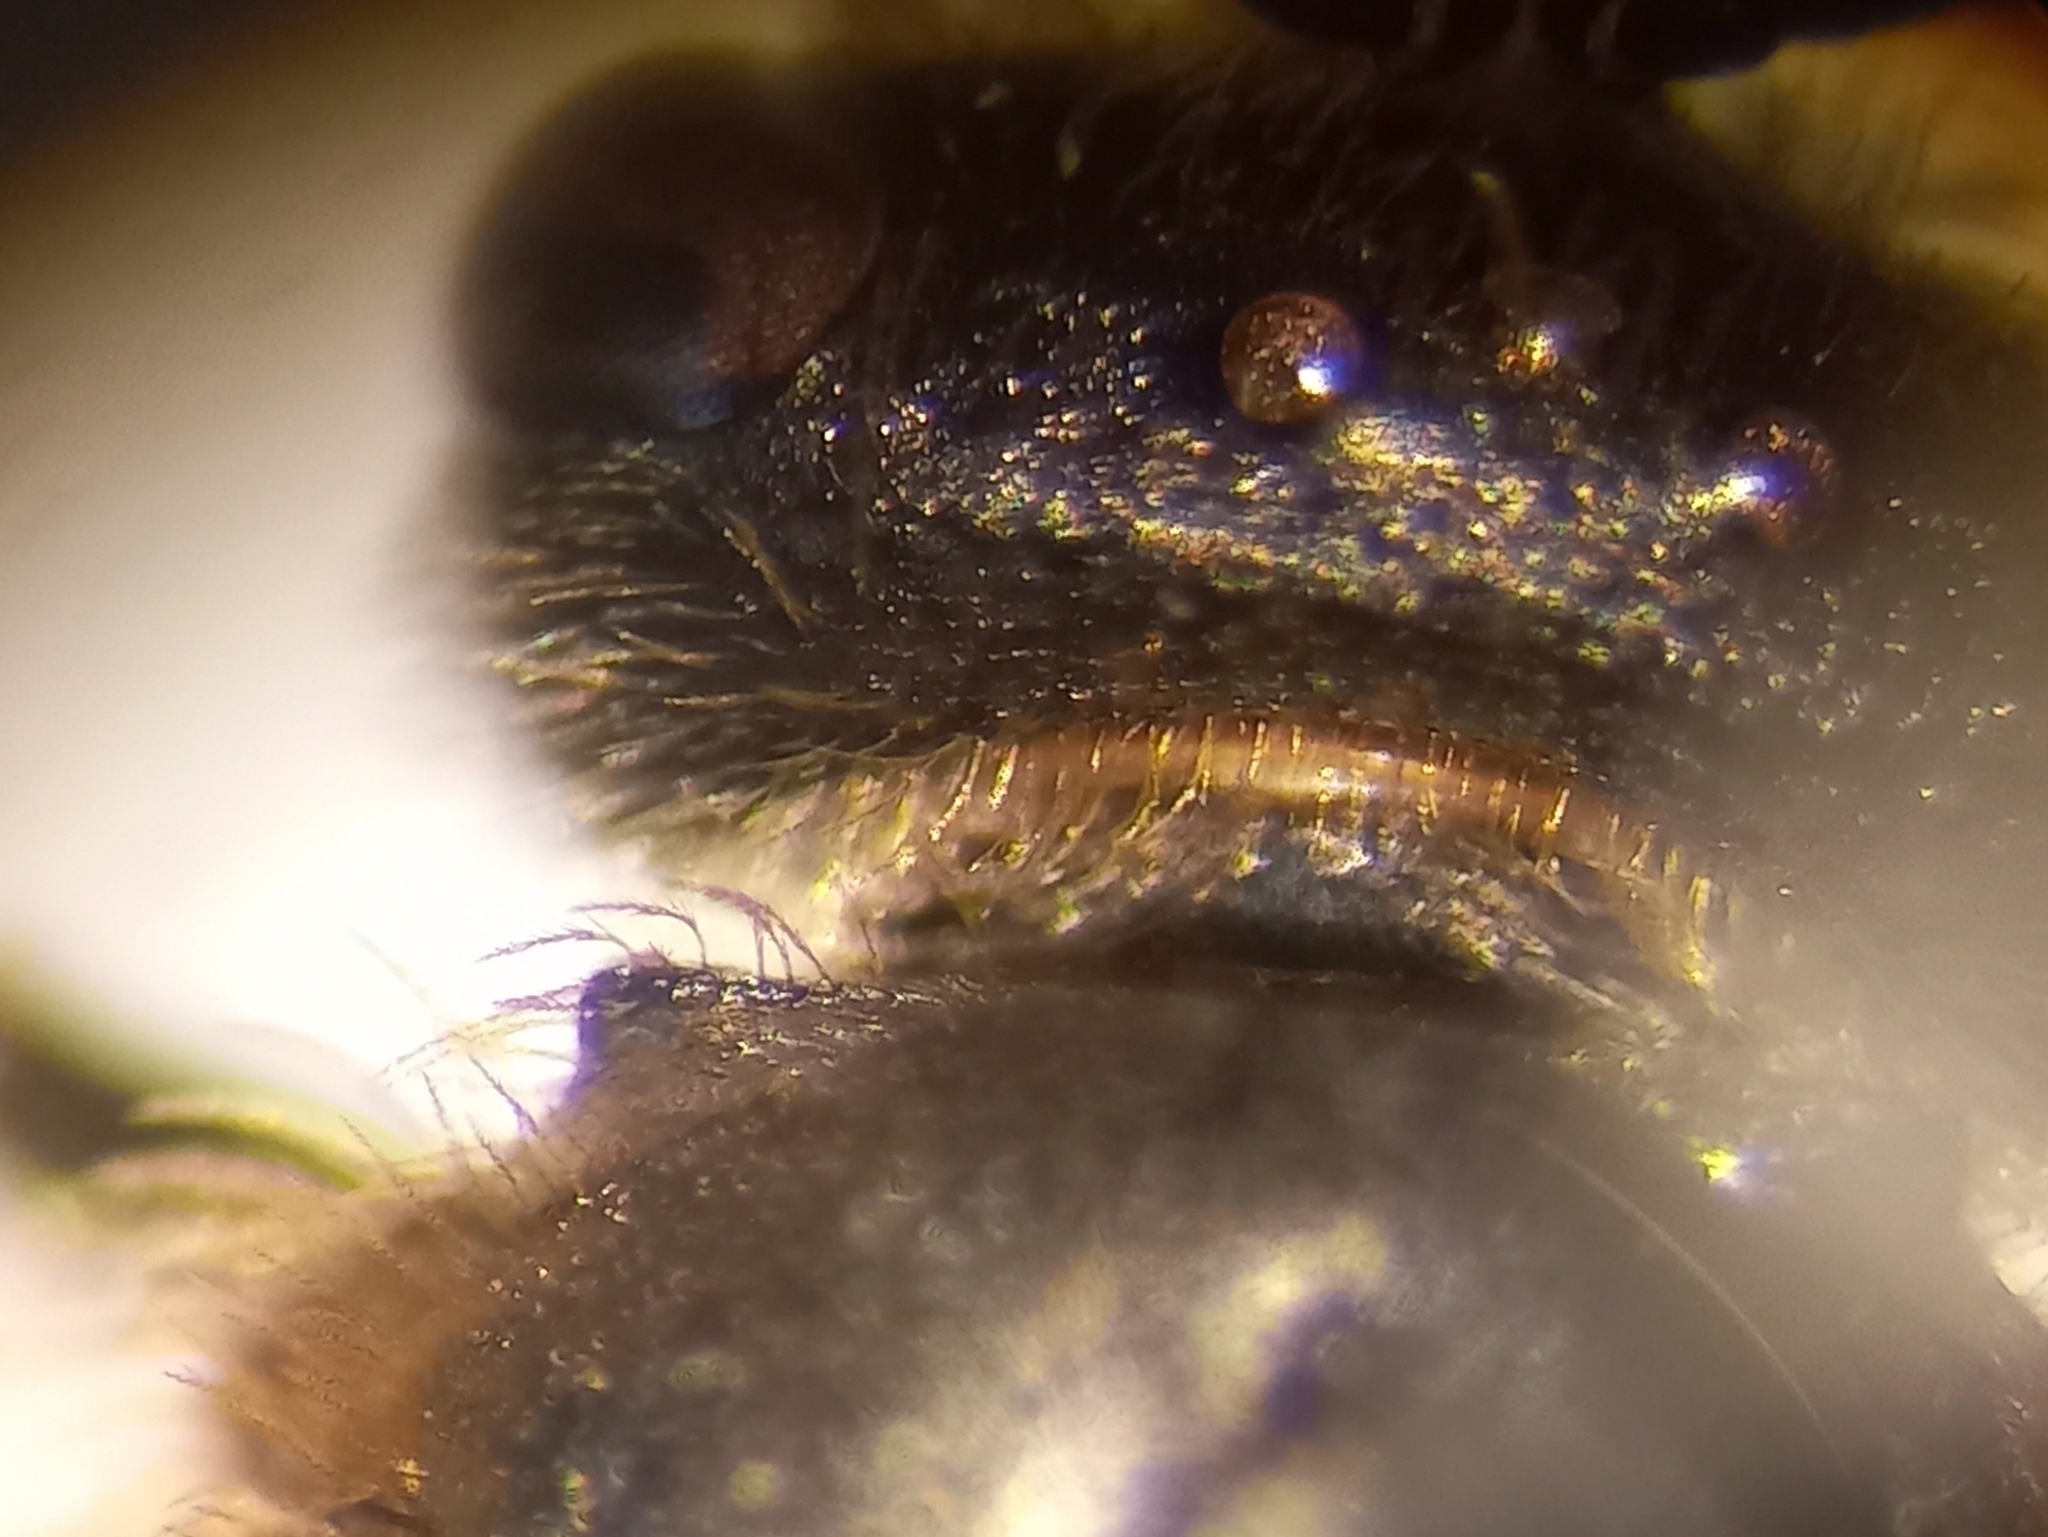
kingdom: Animalia
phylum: Arthropoda
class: Insecta
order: Hymenoptera
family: Halictidae
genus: Lasioglossum
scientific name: Lasioglossum malachurum
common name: Sharp-collared furrow bee
